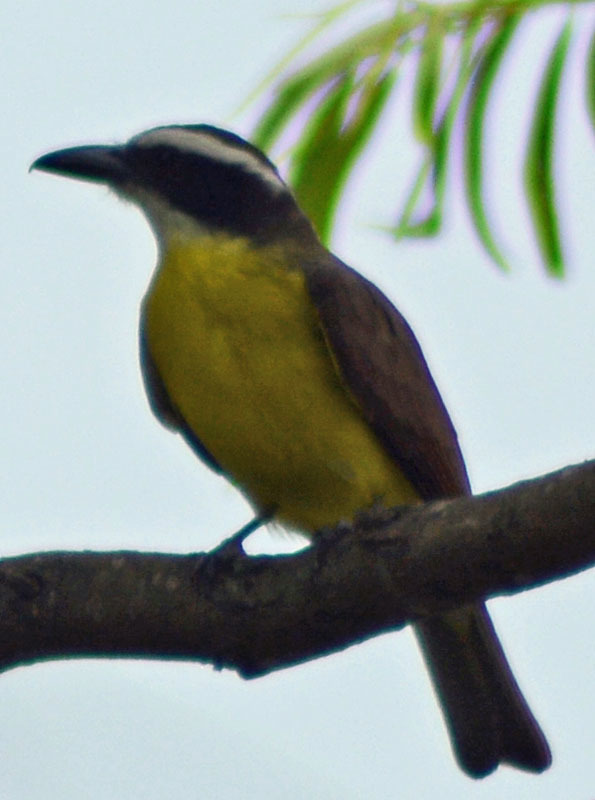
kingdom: Animalia
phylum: Chordata
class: Aves
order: Passeriformes
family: Tyrannidae
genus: Megarynchus
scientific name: Megarynchus pitangua
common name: Boat-billed flycatcher
